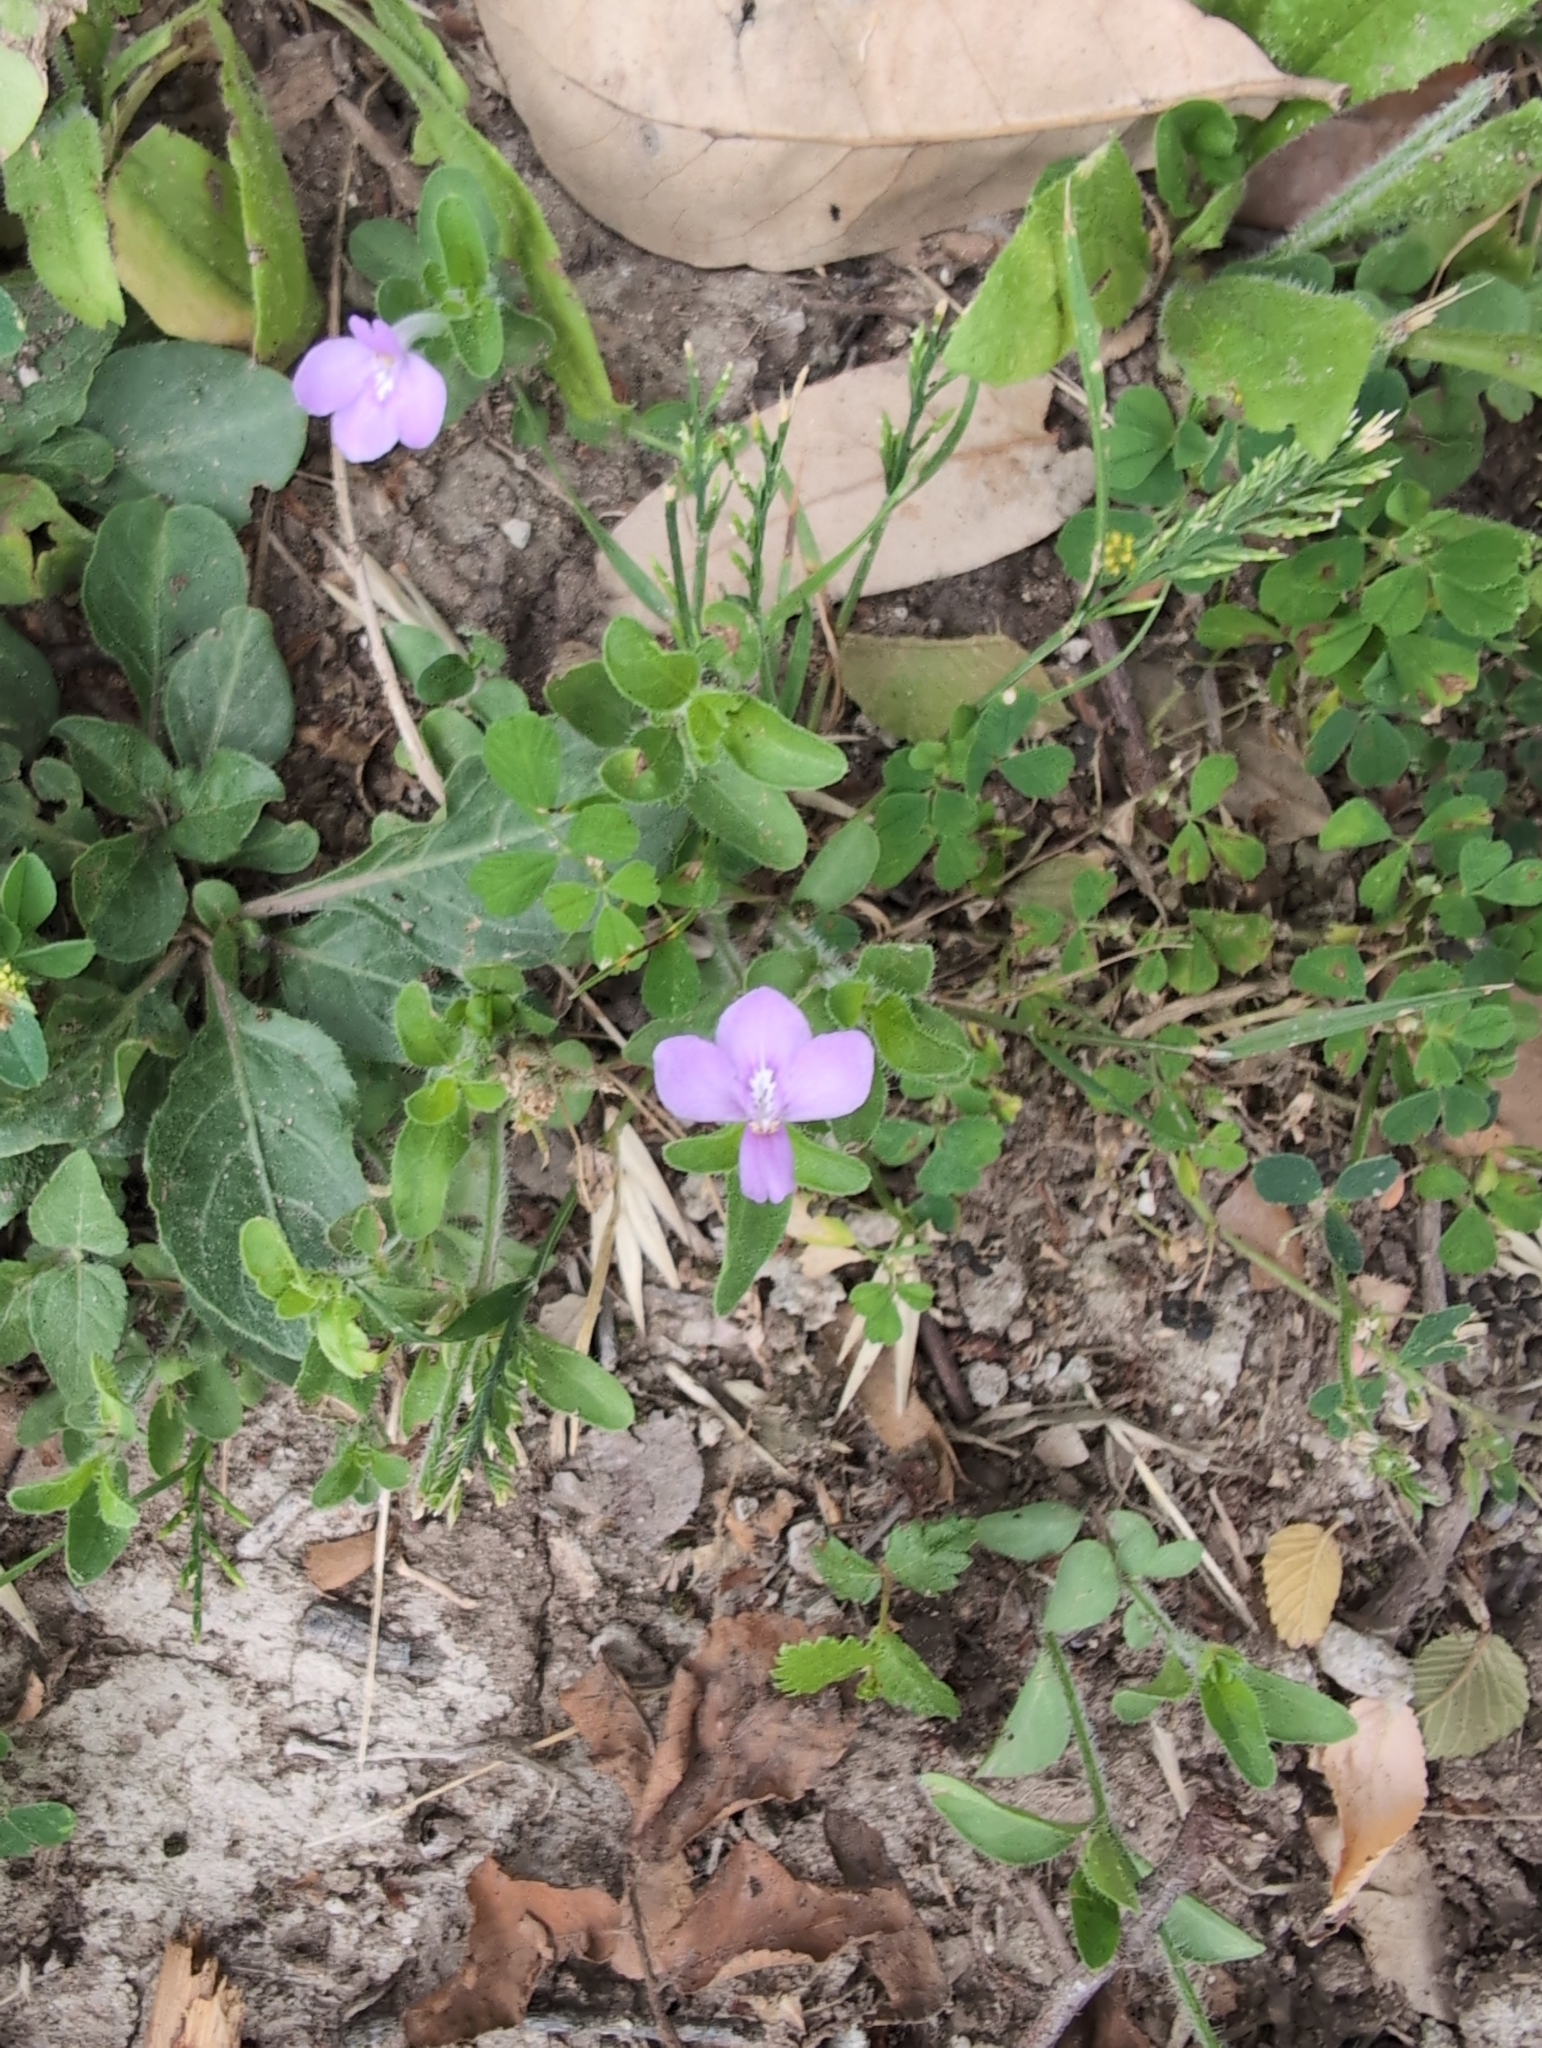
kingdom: Plantae
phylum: Tracheophyta
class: Magnoliopsida
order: Lamiales
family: Acanthaceae
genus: Justicia
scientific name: Justicia pilosella
